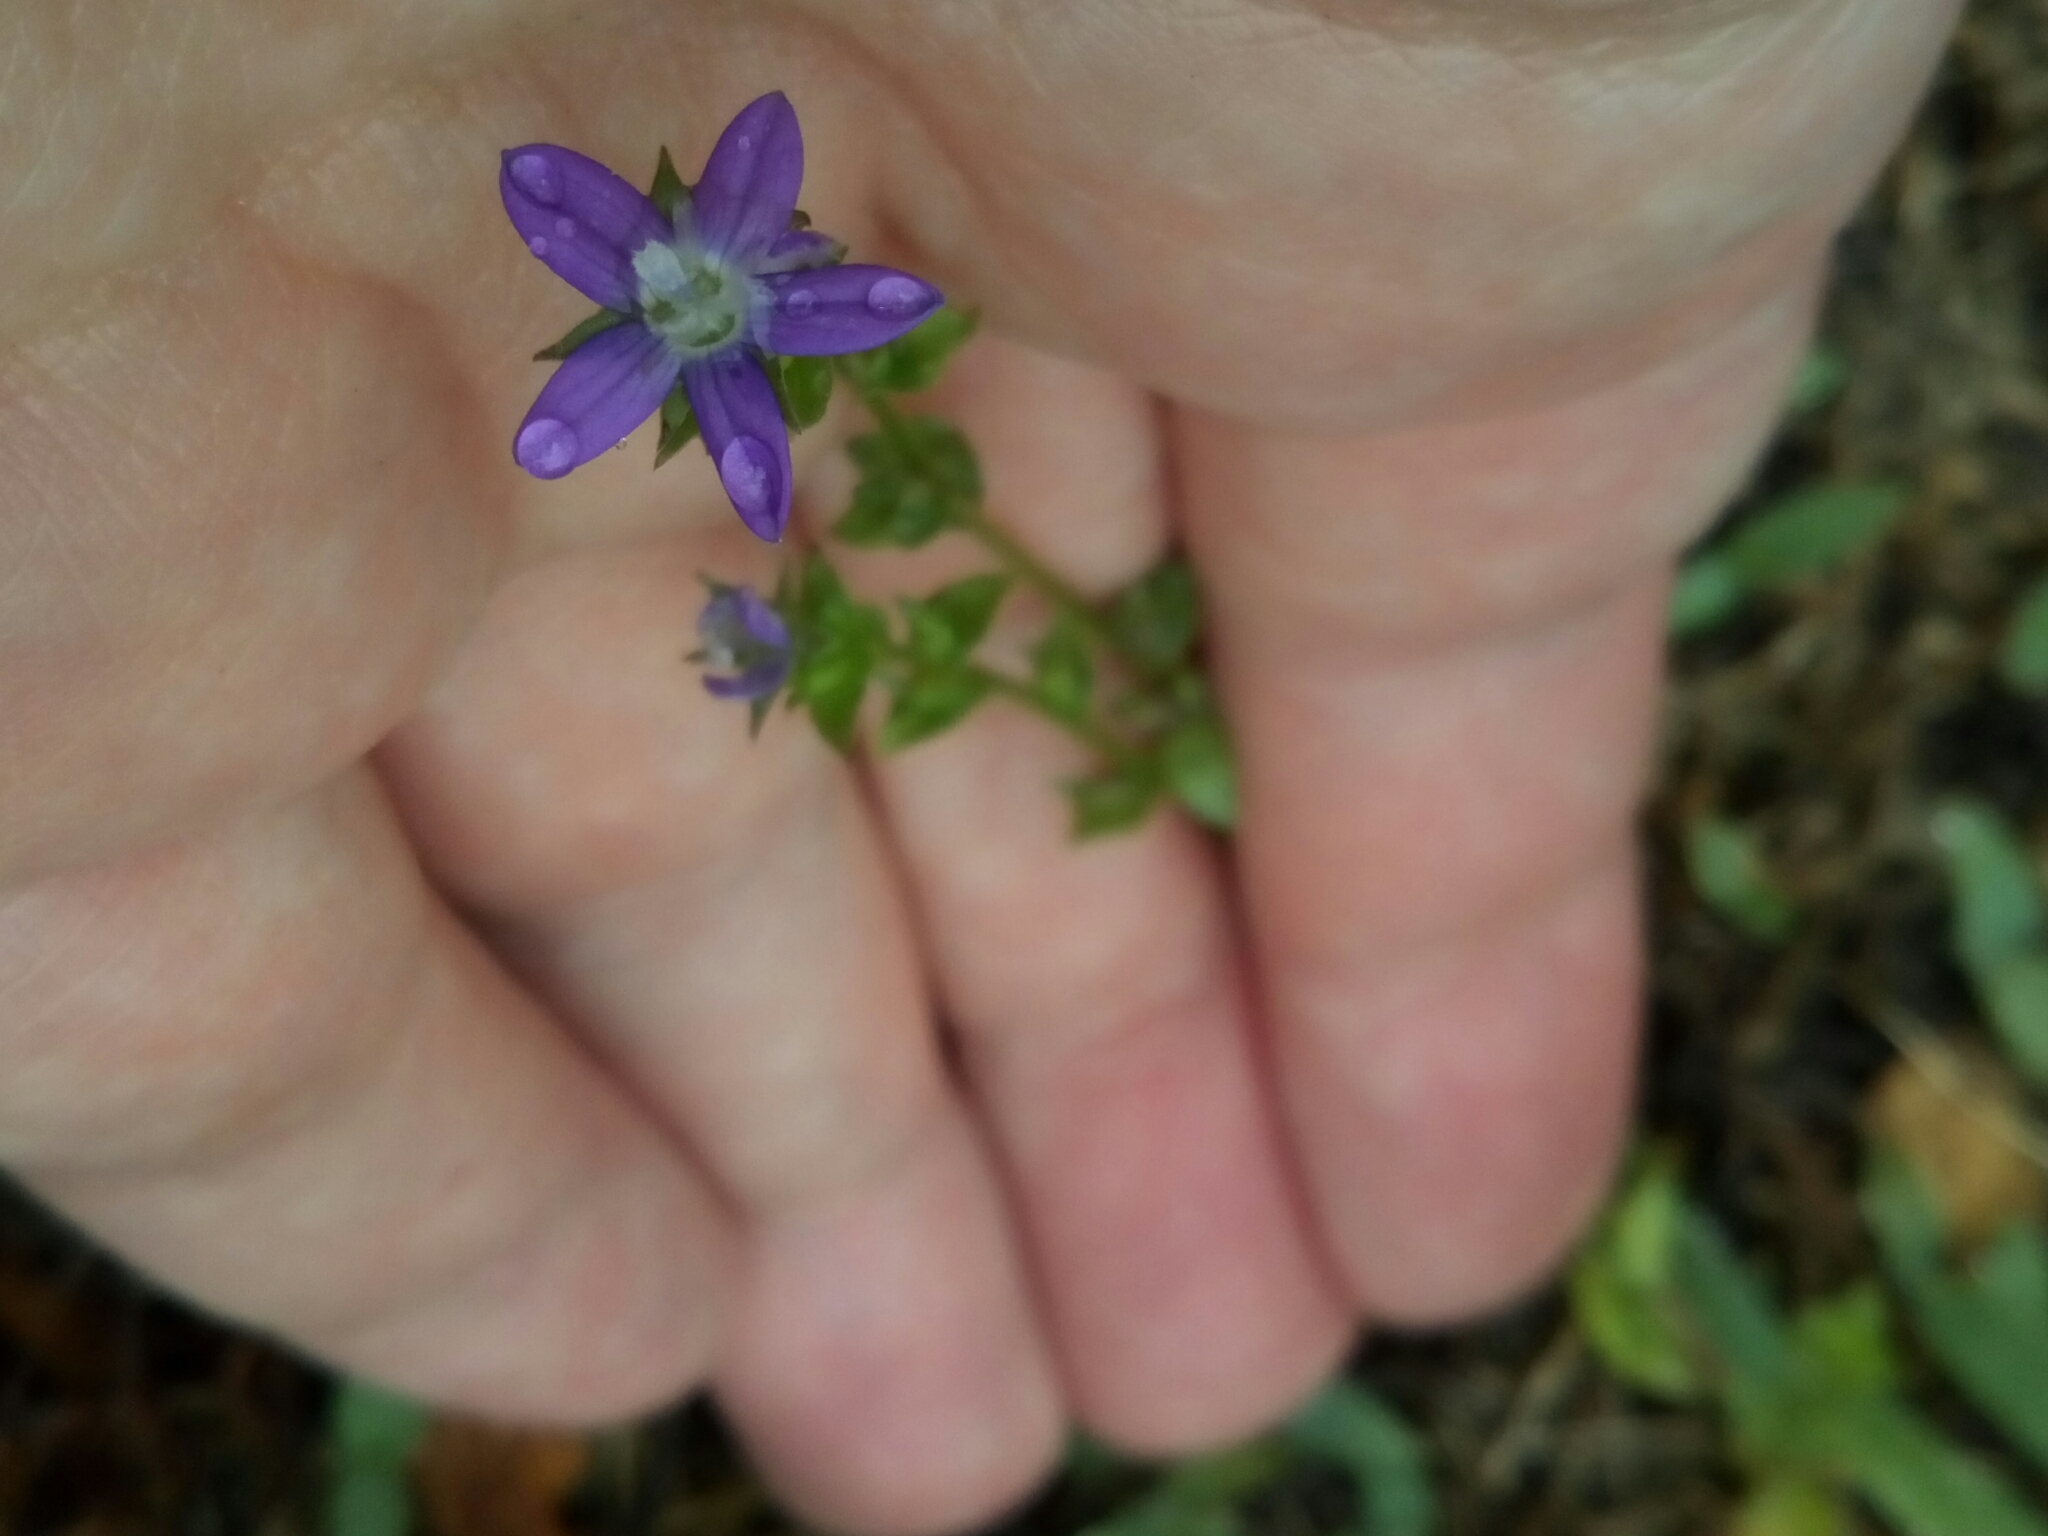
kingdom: Plantae
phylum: Tracheophyta
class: Magnoliopsida
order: Asterales
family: Campanulaceae
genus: Triodanis
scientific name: Triodanis perfoliata
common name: Clasping venus' looking-glass
